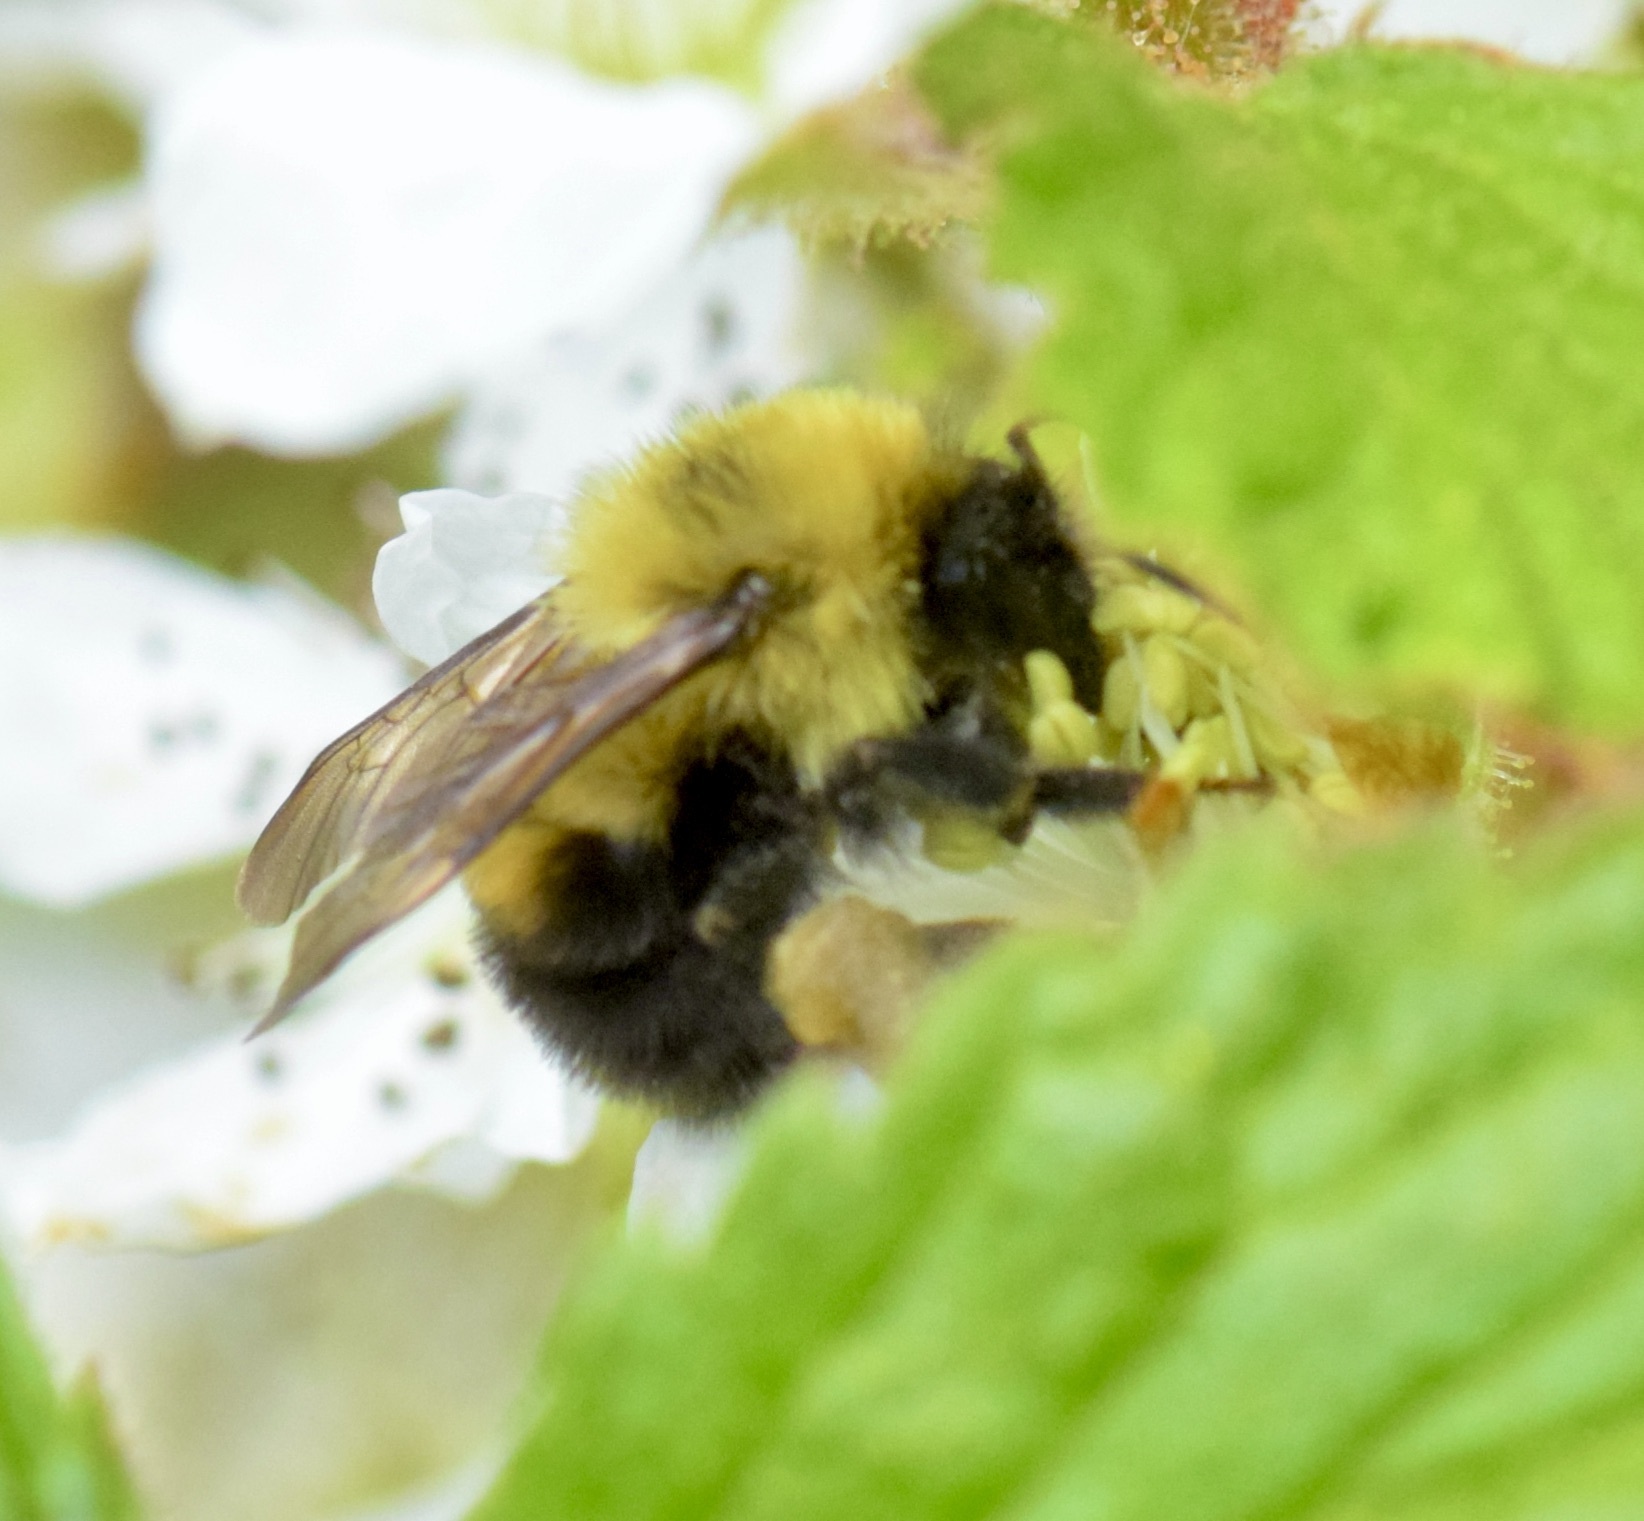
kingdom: Animalia
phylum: Arthropoda
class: Insecta
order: Hymenoptera
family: Apidae
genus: Bombus
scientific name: Bombus bimaculatus
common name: Two-spotted bumble bee
